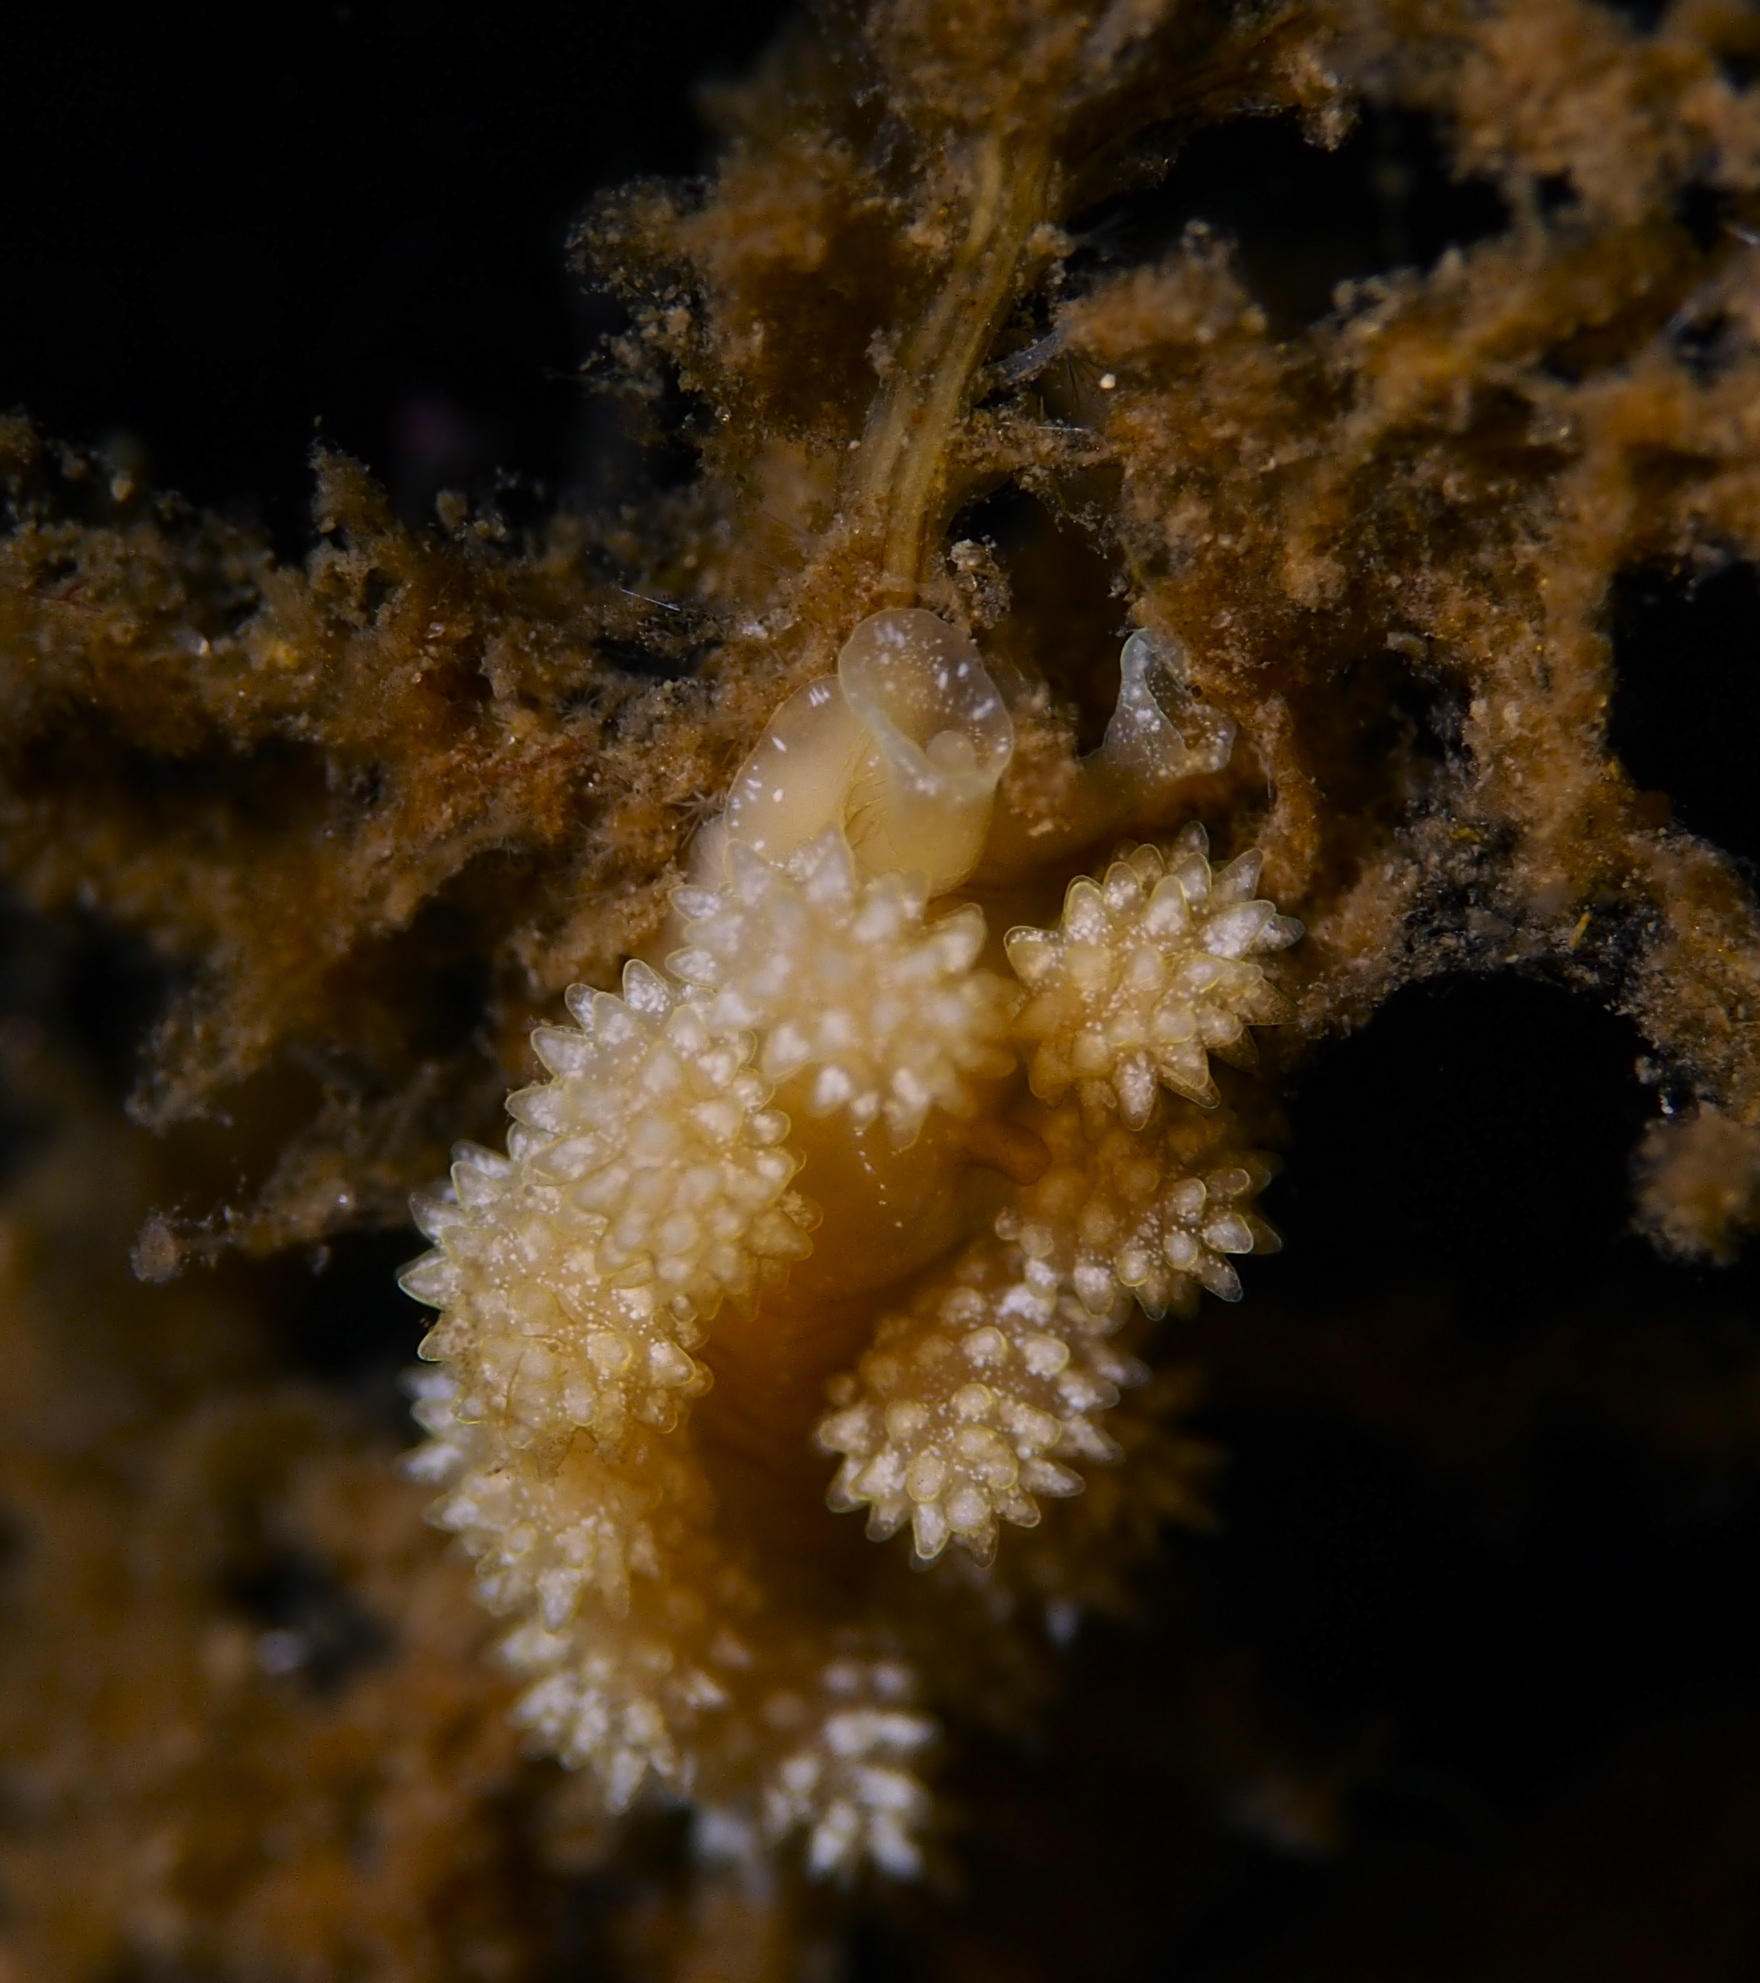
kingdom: Animalia
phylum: Mollusca
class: Gastropoda
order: Nudibranchia
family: Dotidae
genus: Doto
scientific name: Doto fragilis
